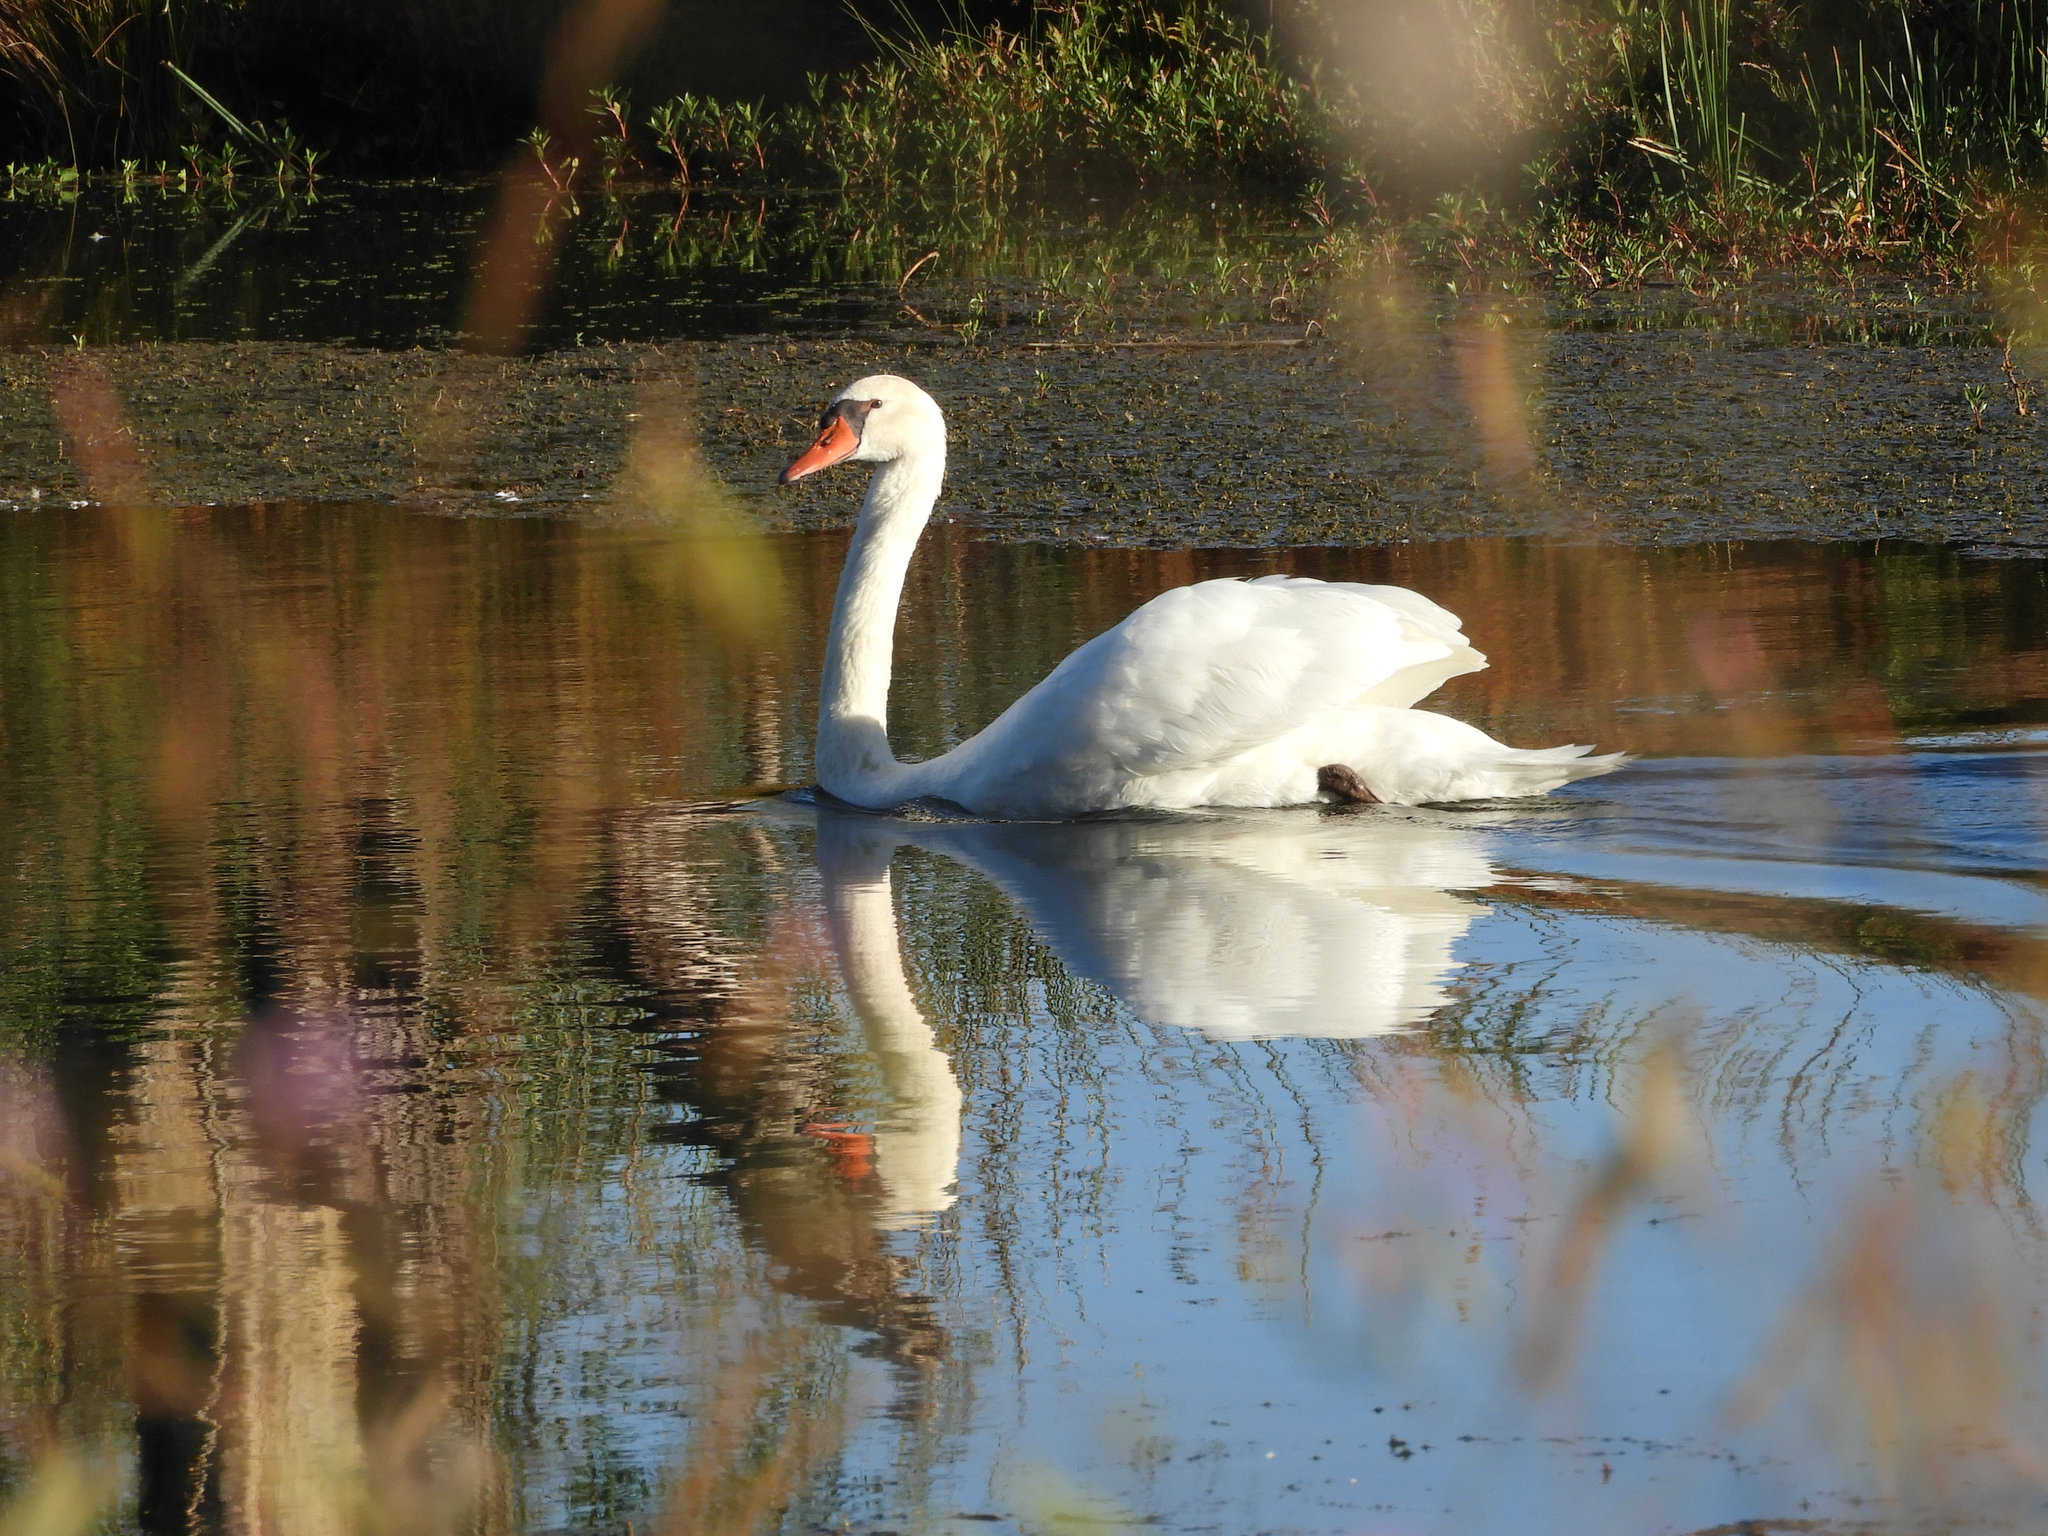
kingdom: Animalia
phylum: Chordata
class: Aves
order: Anseriformes
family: Anatidae
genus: Cygnus
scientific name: Cygnus olor
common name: Mute swan
